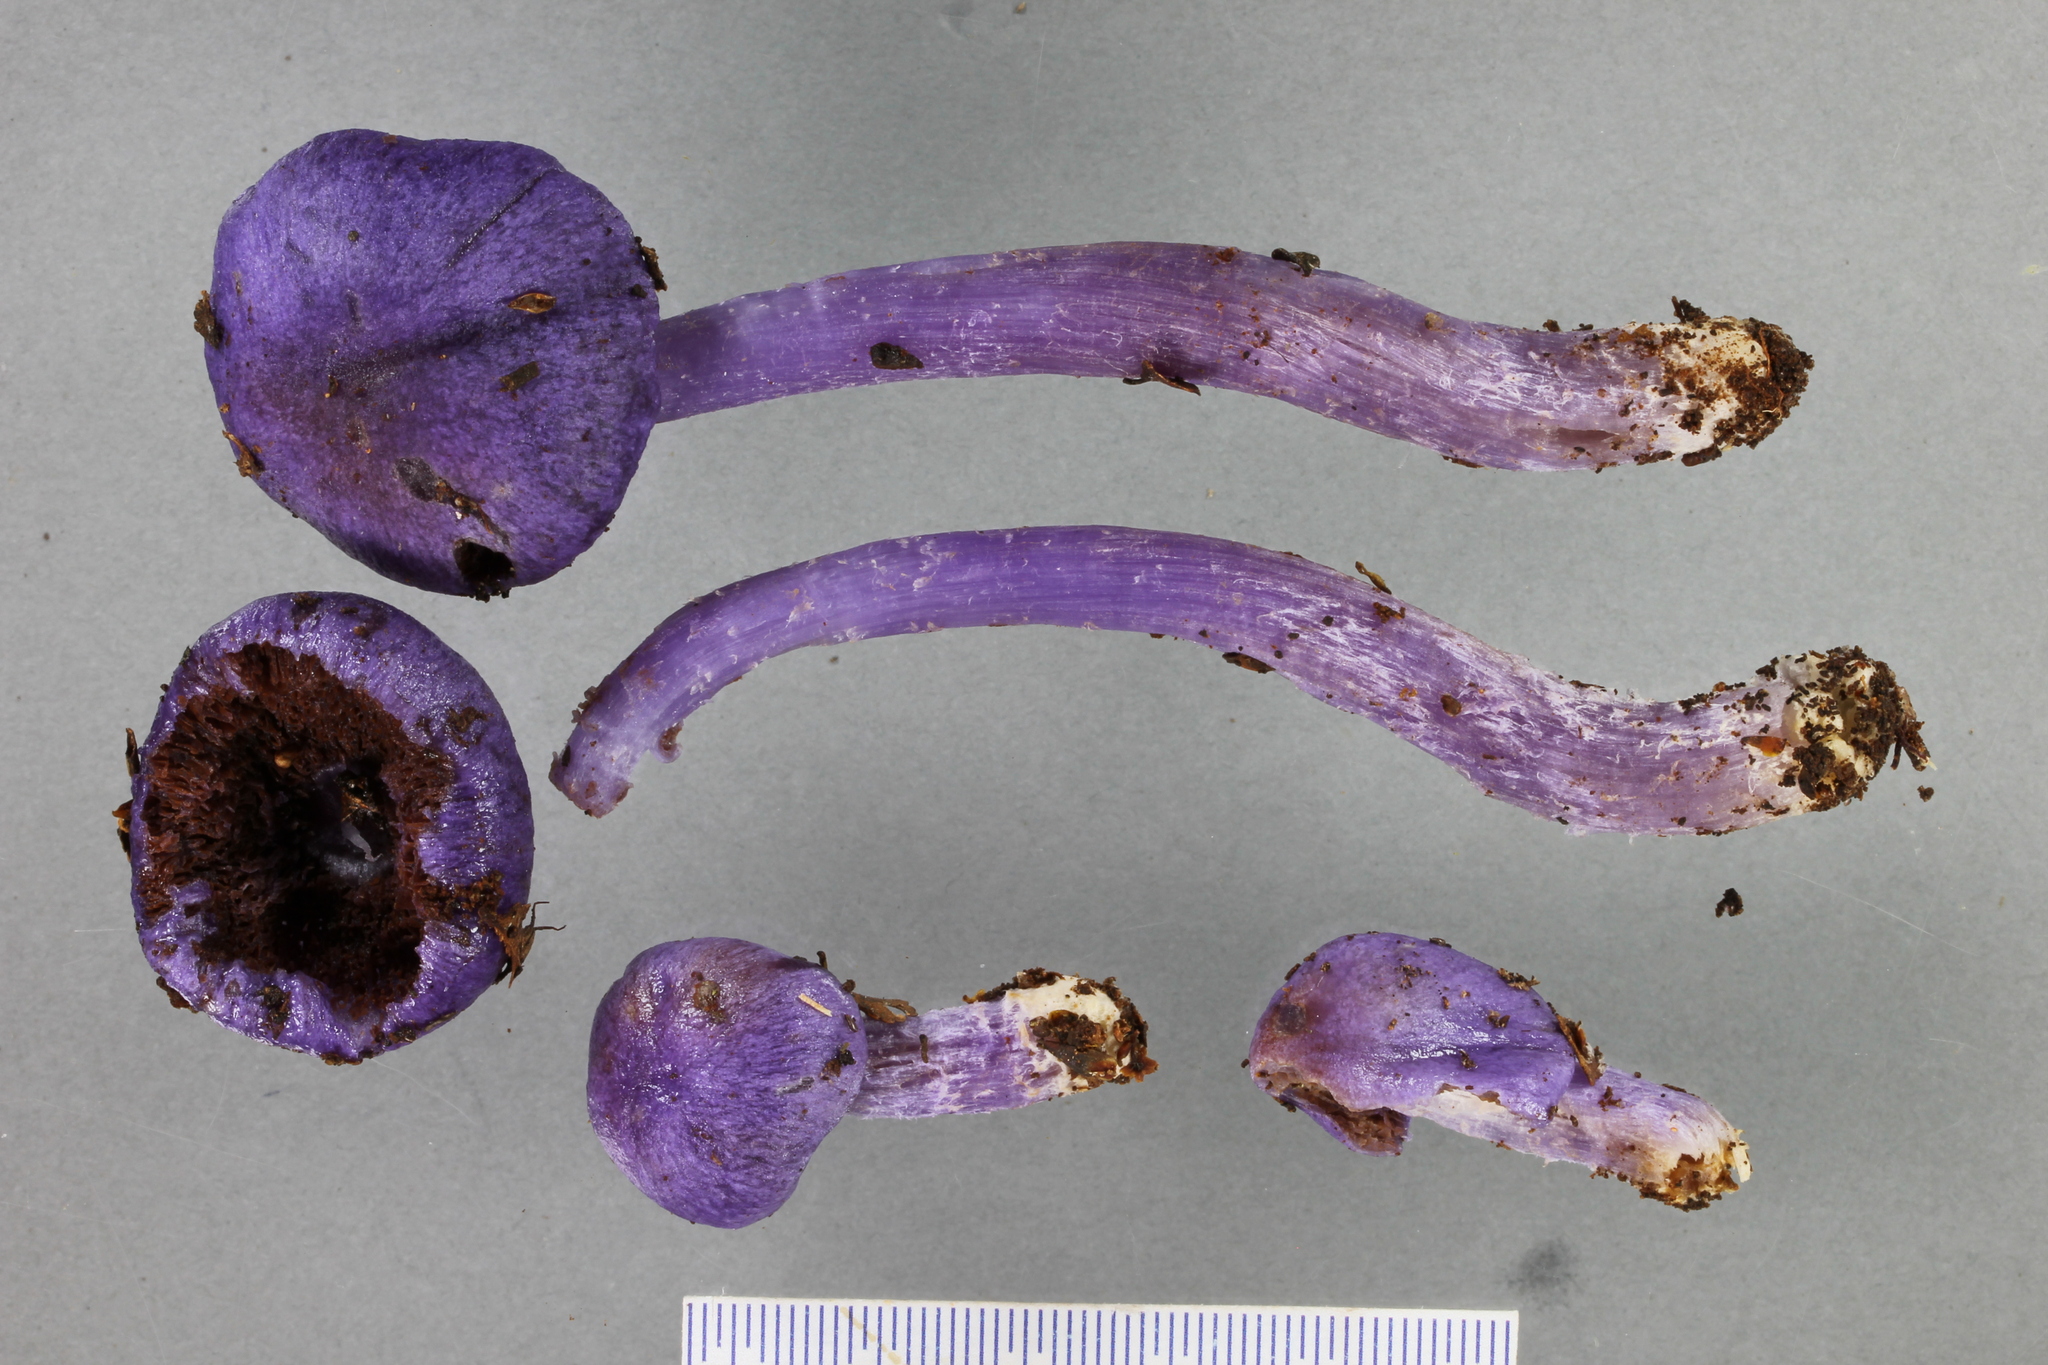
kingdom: Fungi
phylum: Basidiomycota
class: Agaricomycetes
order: Agaricales
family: Cortinariaceae
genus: Cortinarius
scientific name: Cortinarius violaceocystidiatus
